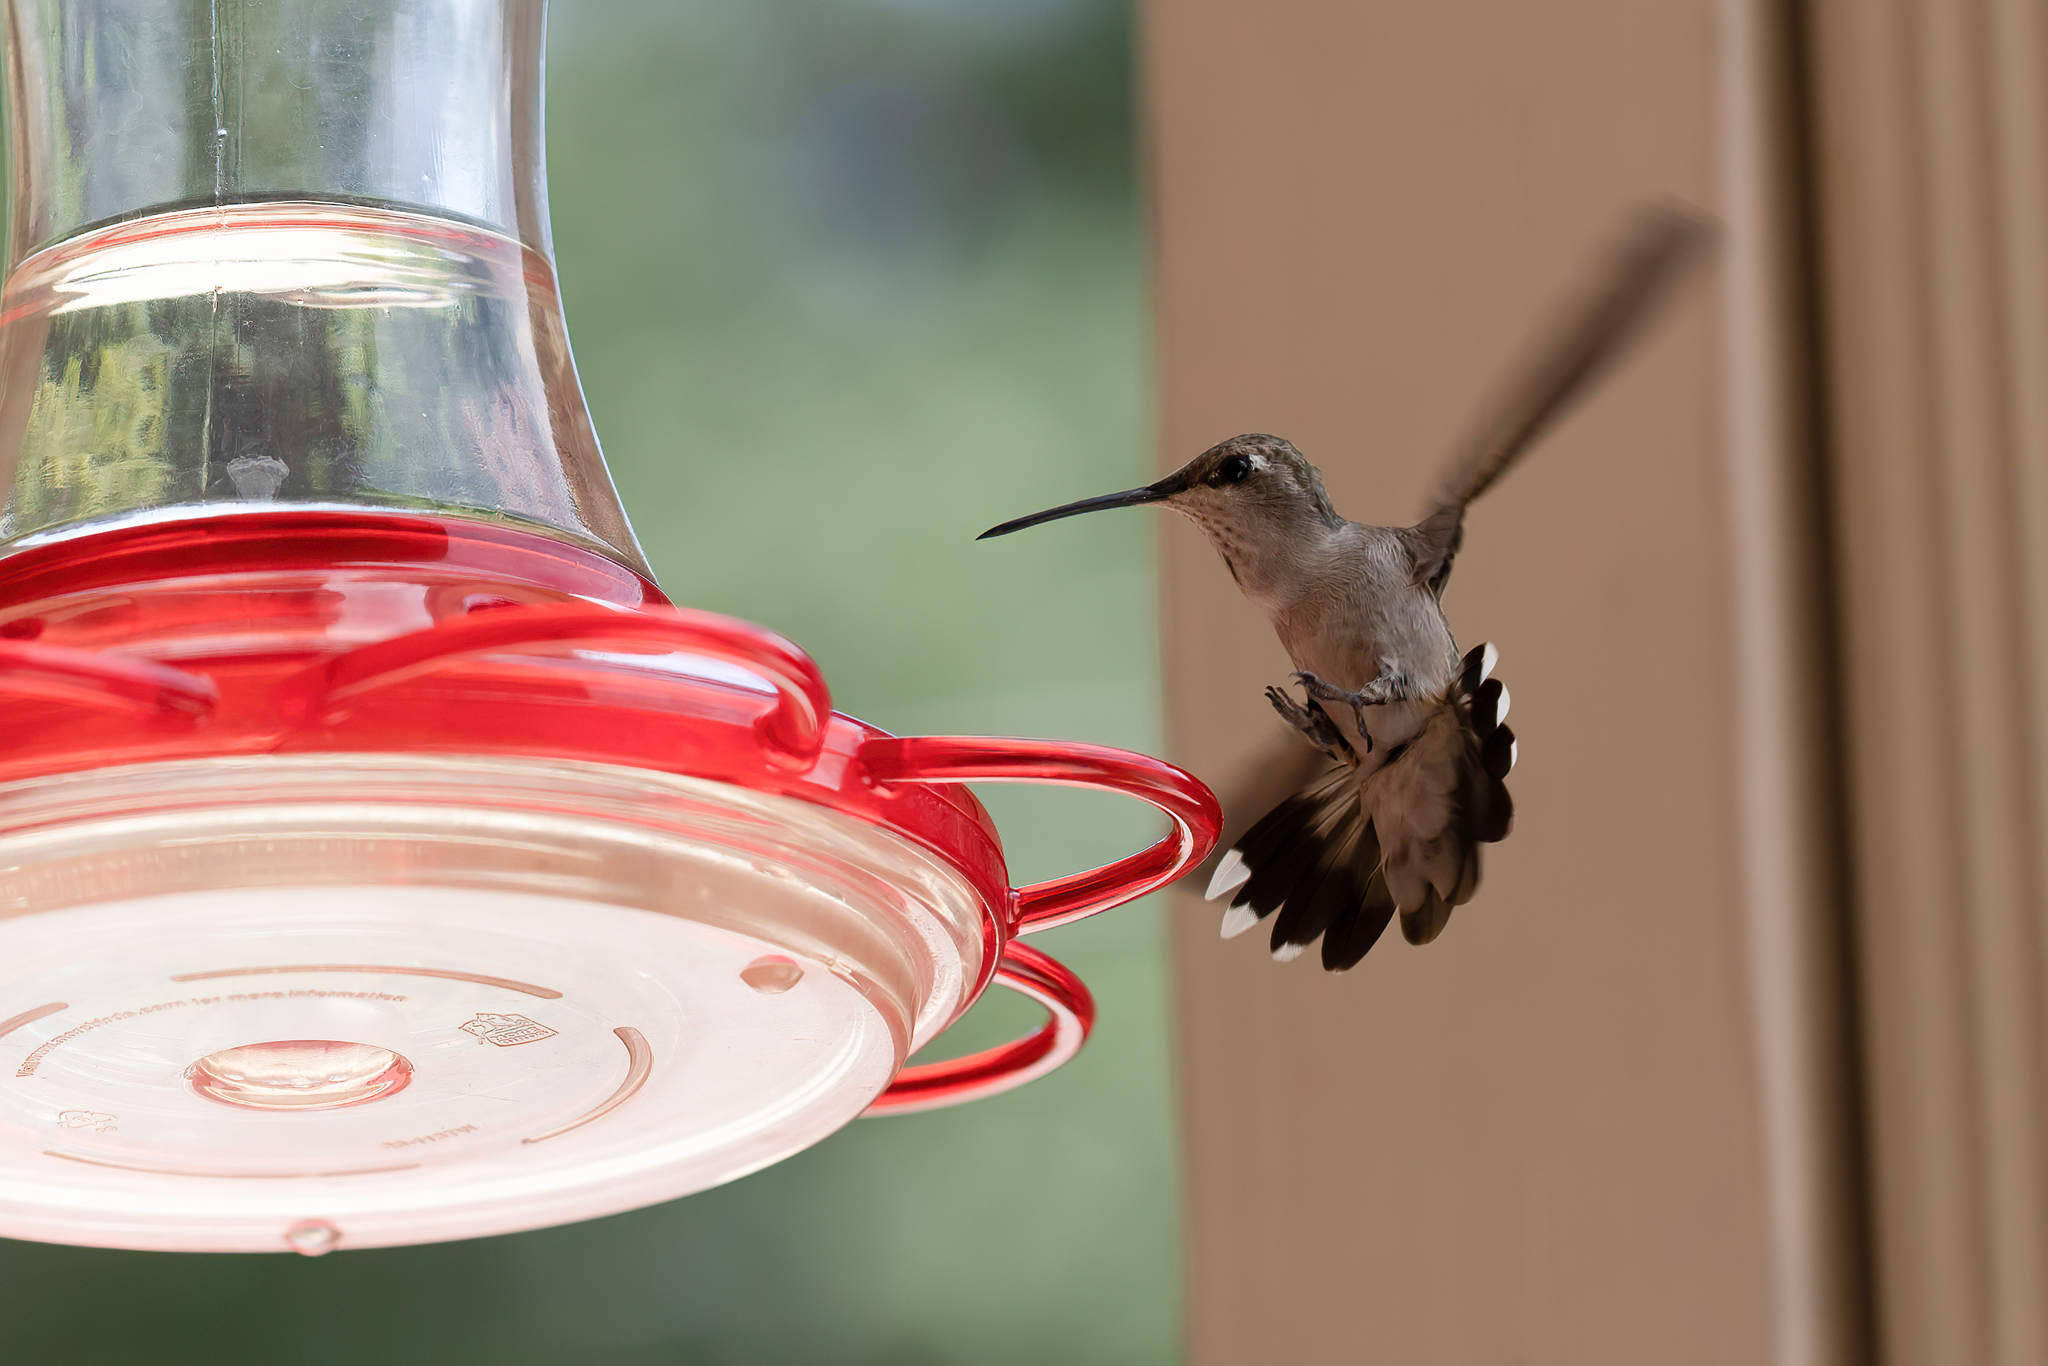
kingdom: Animalia
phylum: Chordata
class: Aves
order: Apodiformes
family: Trochilidae
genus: Archilochus
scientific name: Archilochus alexandri
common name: Black-chinned hummingbird
